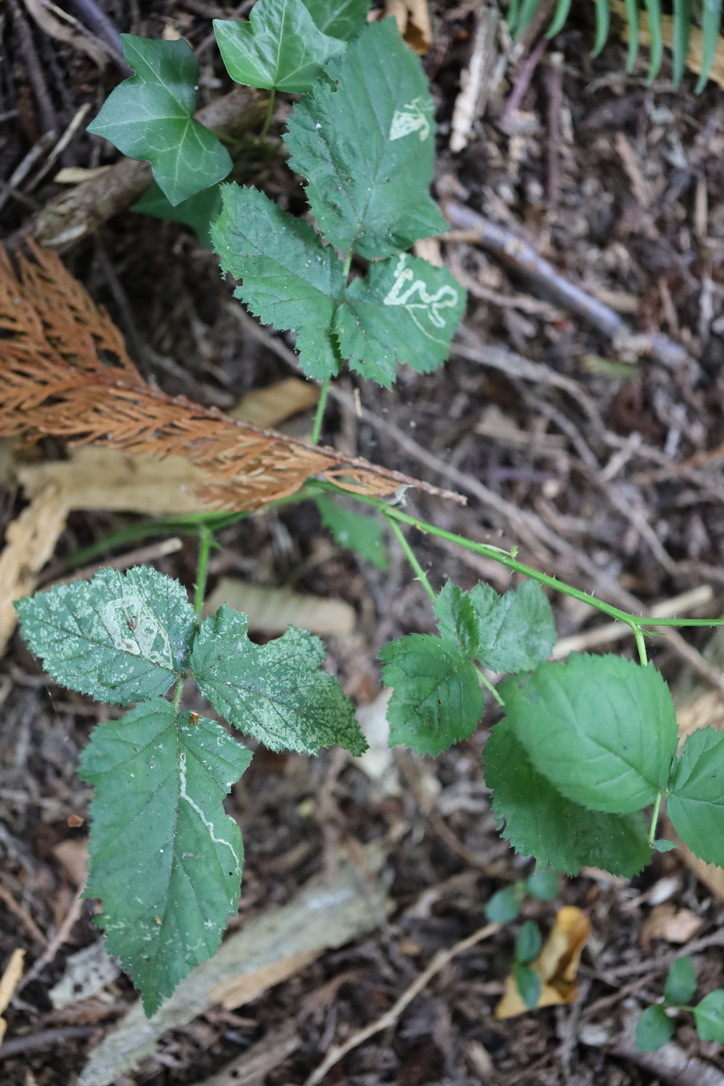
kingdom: Animalia
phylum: Arthropoda
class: Insecta
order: Diptera
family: Agromyzidae
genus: Agromyza
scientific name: Agromyza vockerothi
